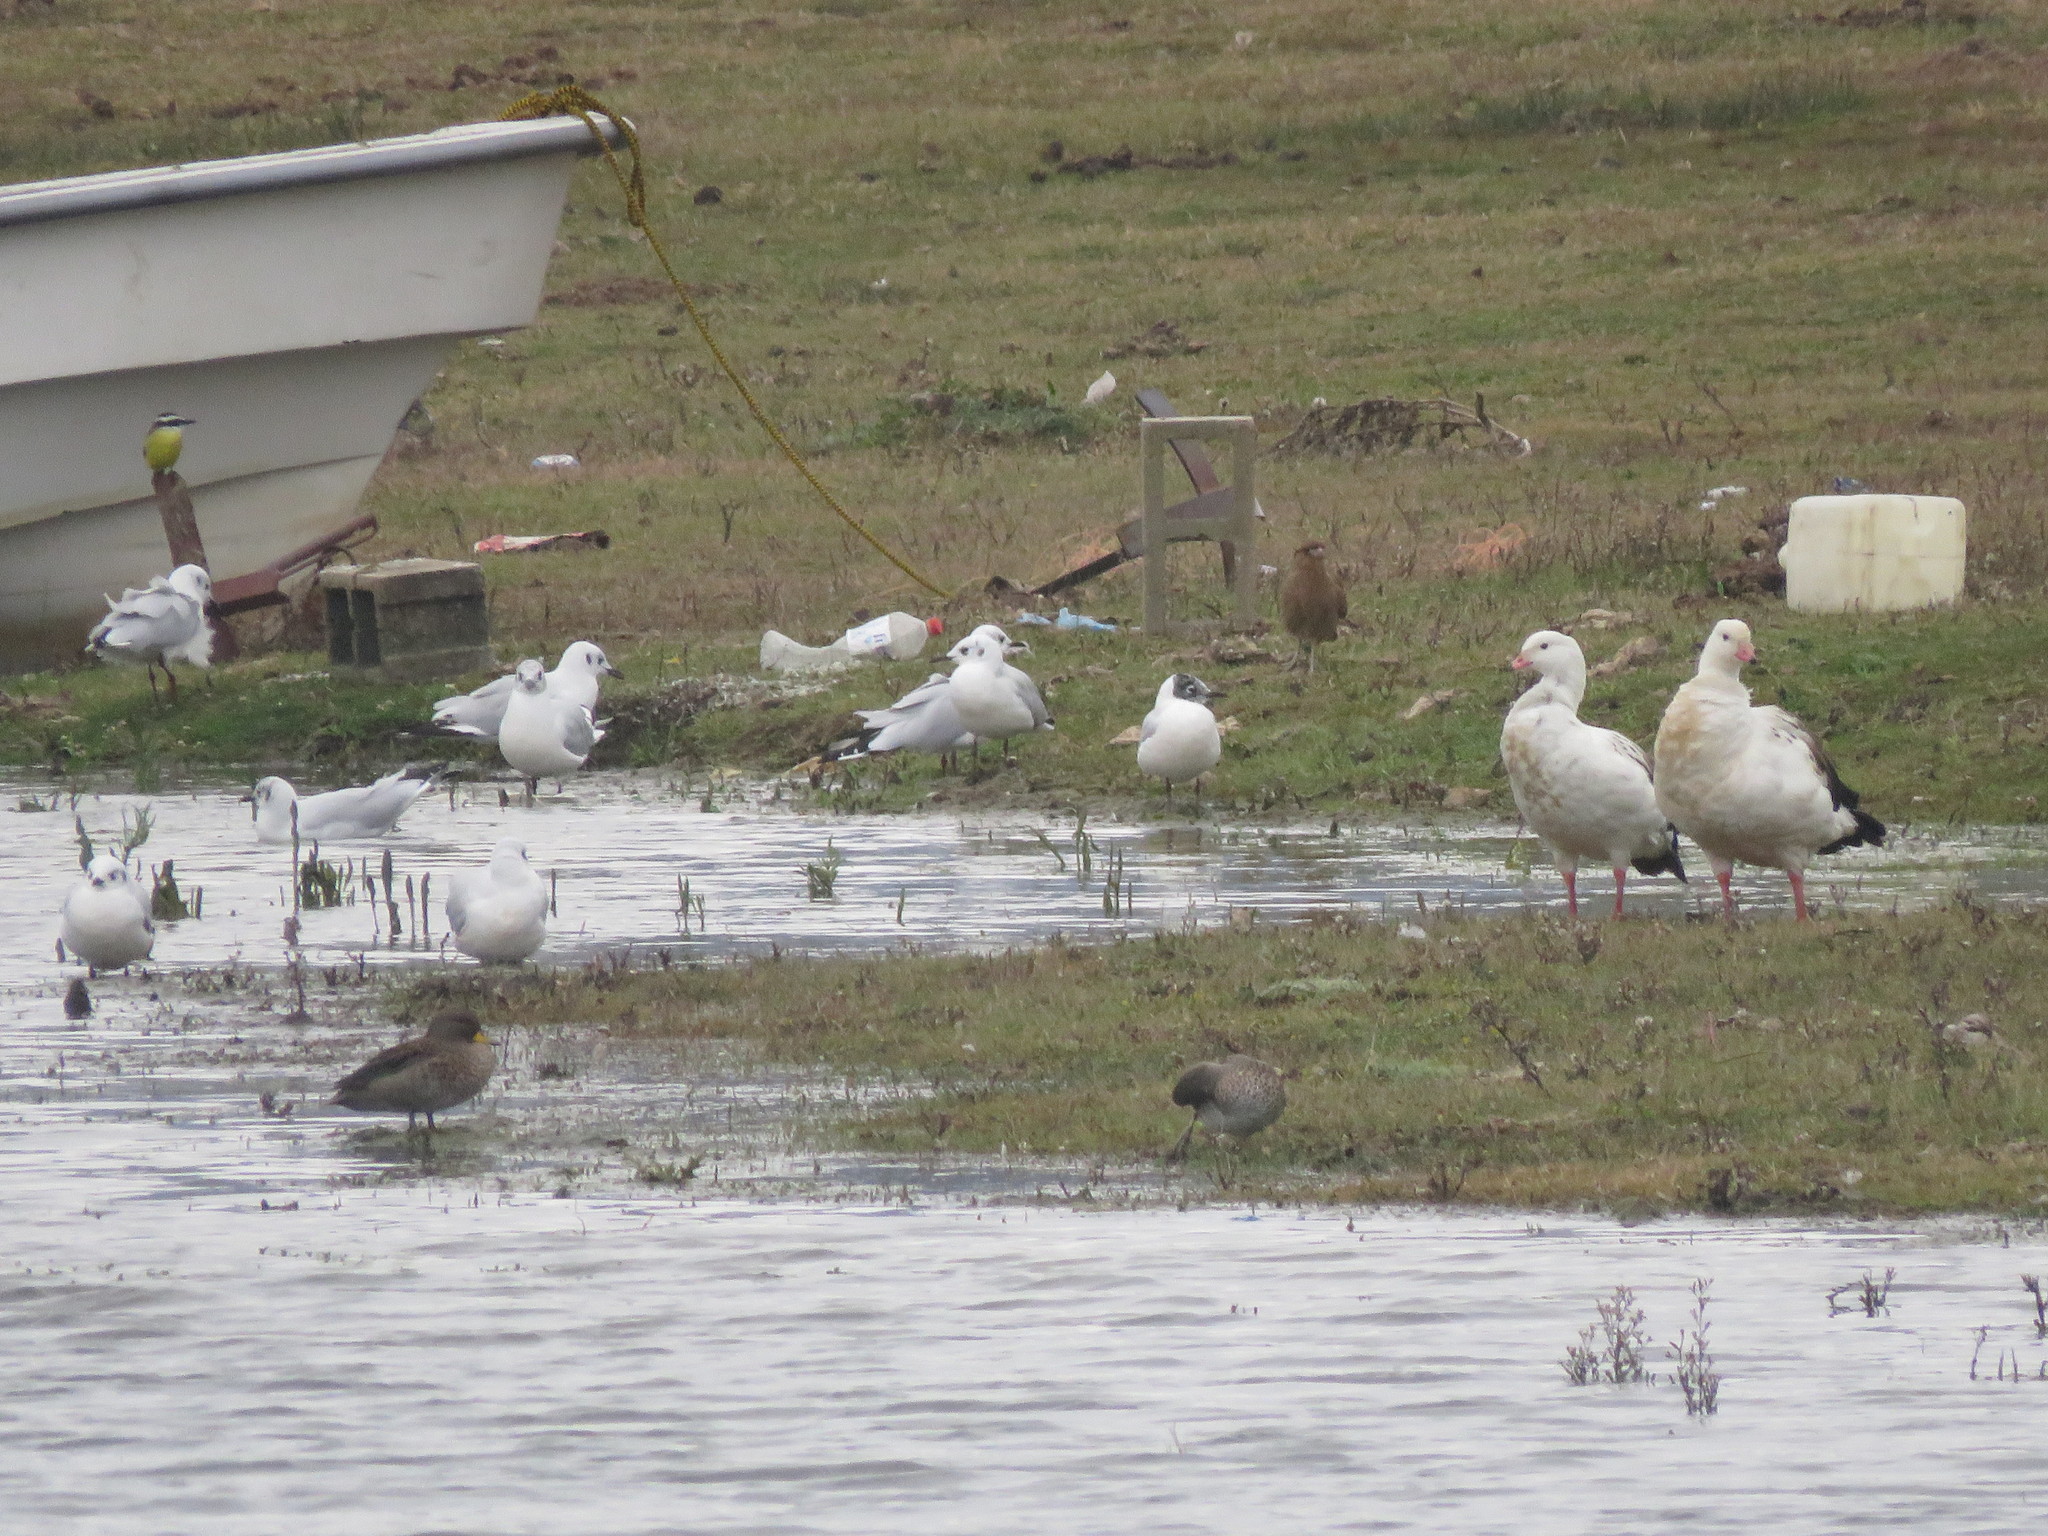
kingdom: Animalia
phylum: Chordata
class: Aves
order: Anseriformes
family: Anatidae
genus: Chloephaga
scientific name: Chloephaga melanoptera
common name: Andean goose
